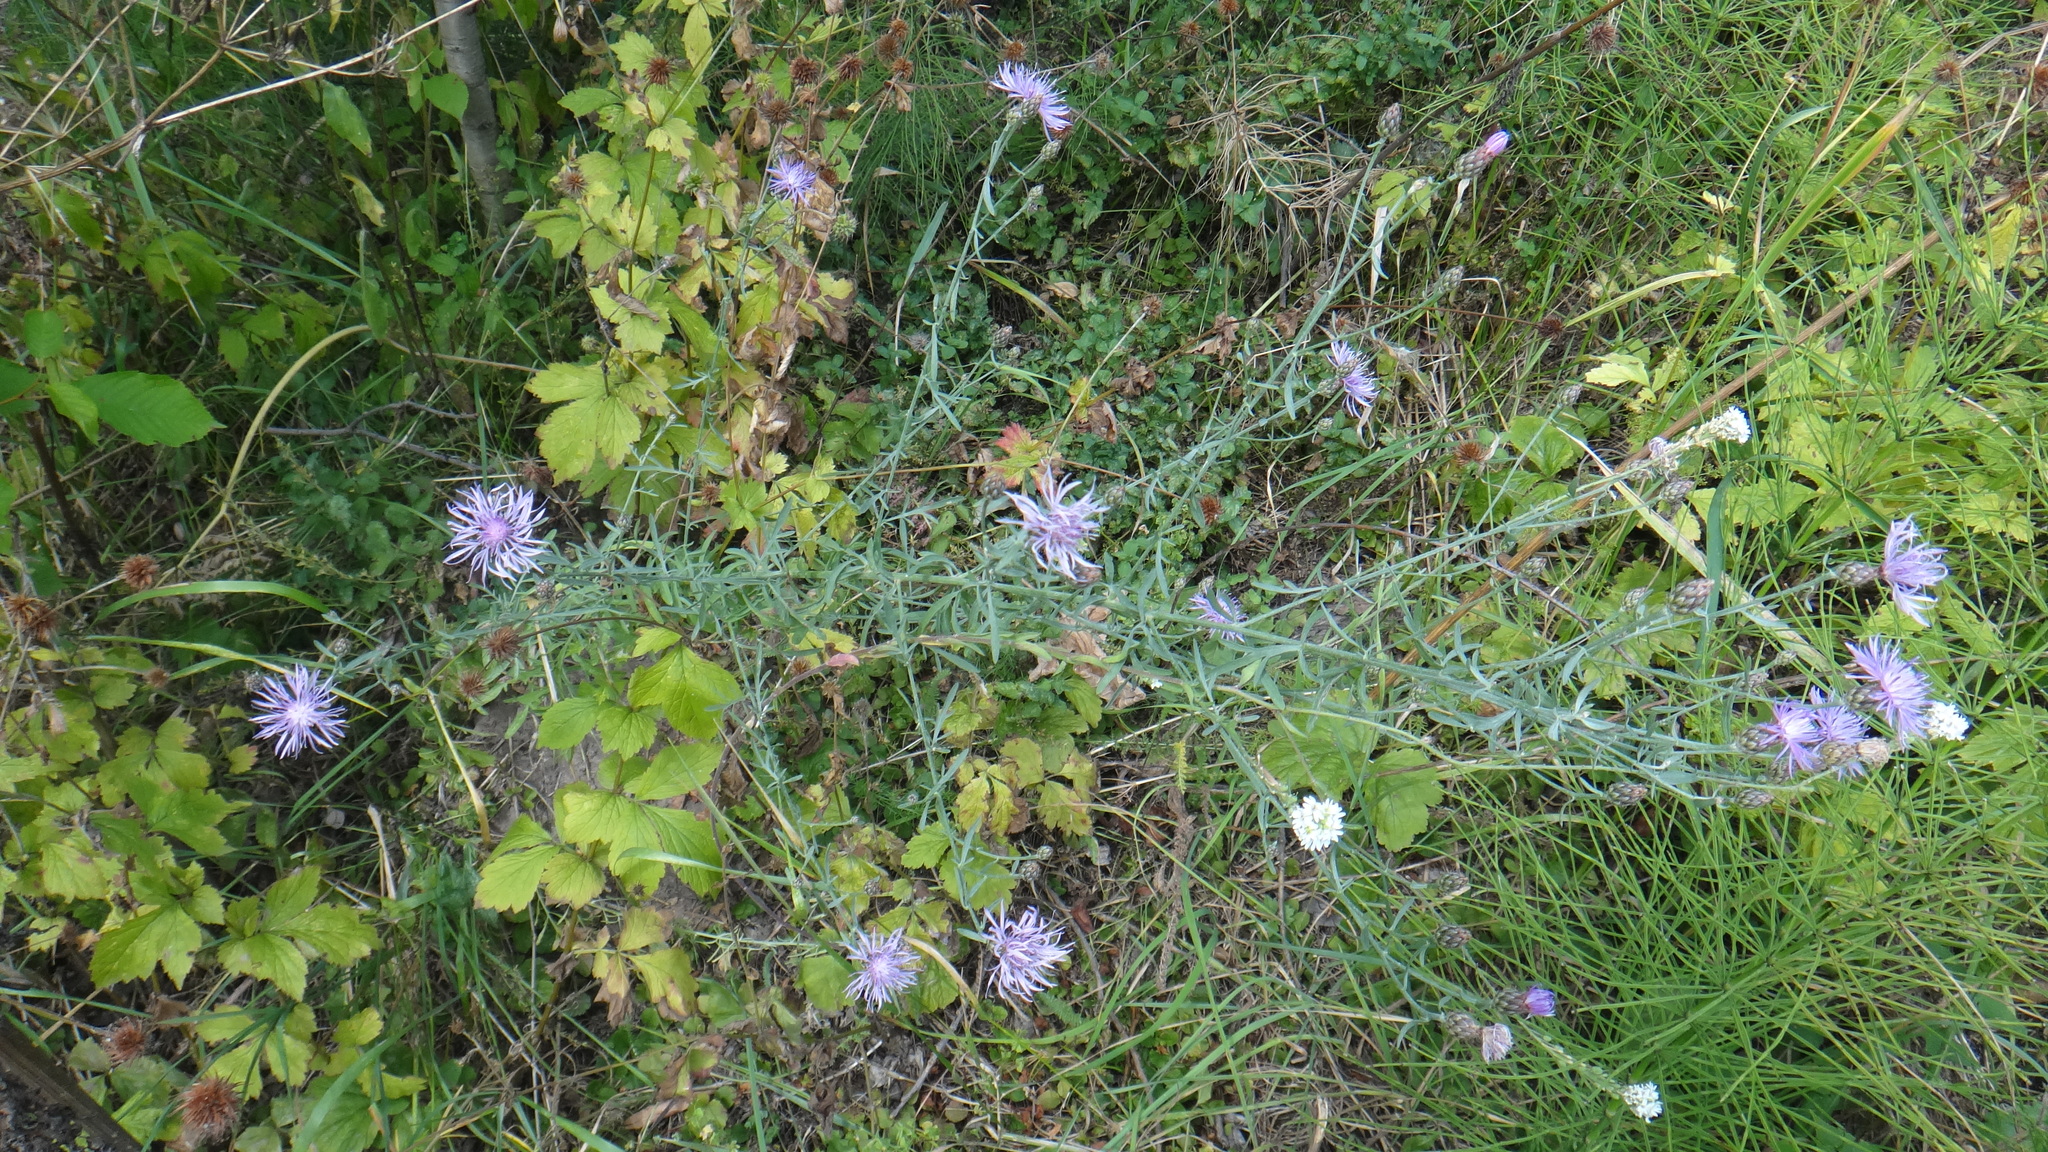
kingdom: Plantae
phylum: Tracheophyta
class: Magnoliopsida
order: Asterales
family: Asteraceae
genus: Centaurea
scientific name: Centaurea stoebe
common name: Spotted knapweed
